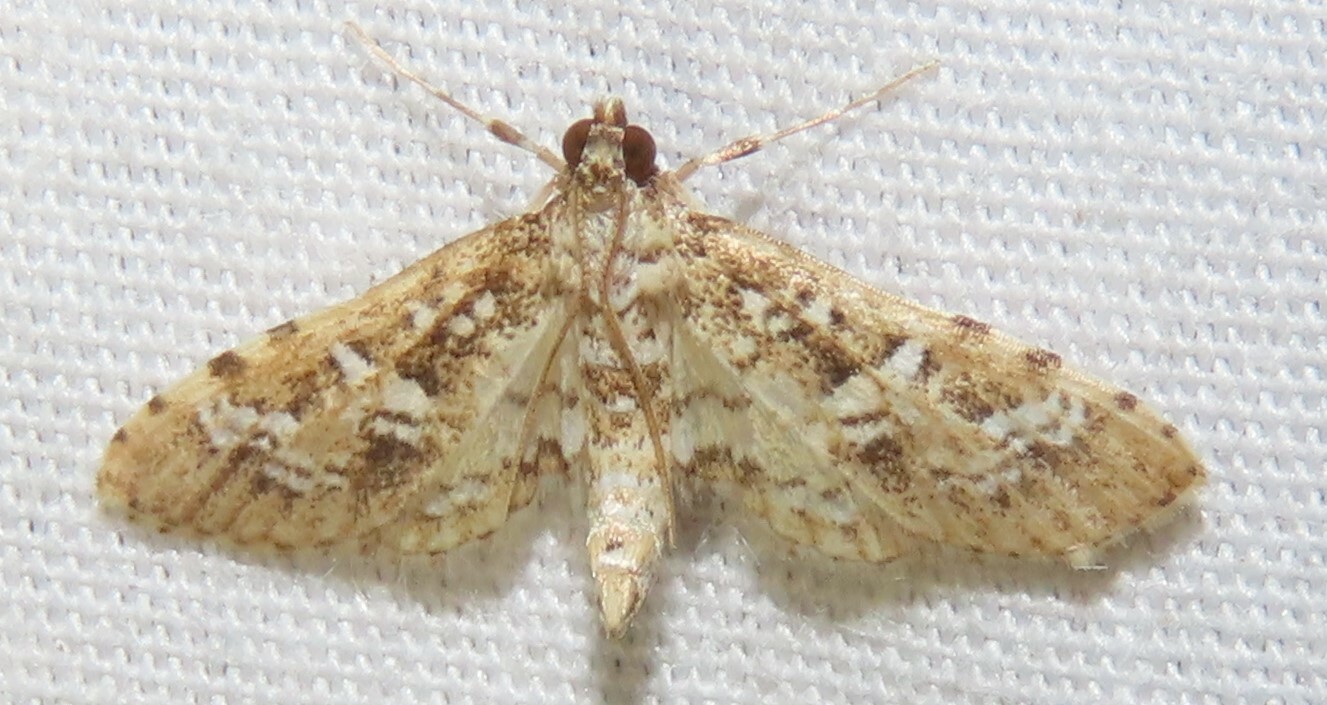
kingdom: Animalia
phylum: Arthropoda
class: Insecta
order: Lepidoptera
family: Crambidae
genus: Samea
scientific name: Samea multiplicalis
